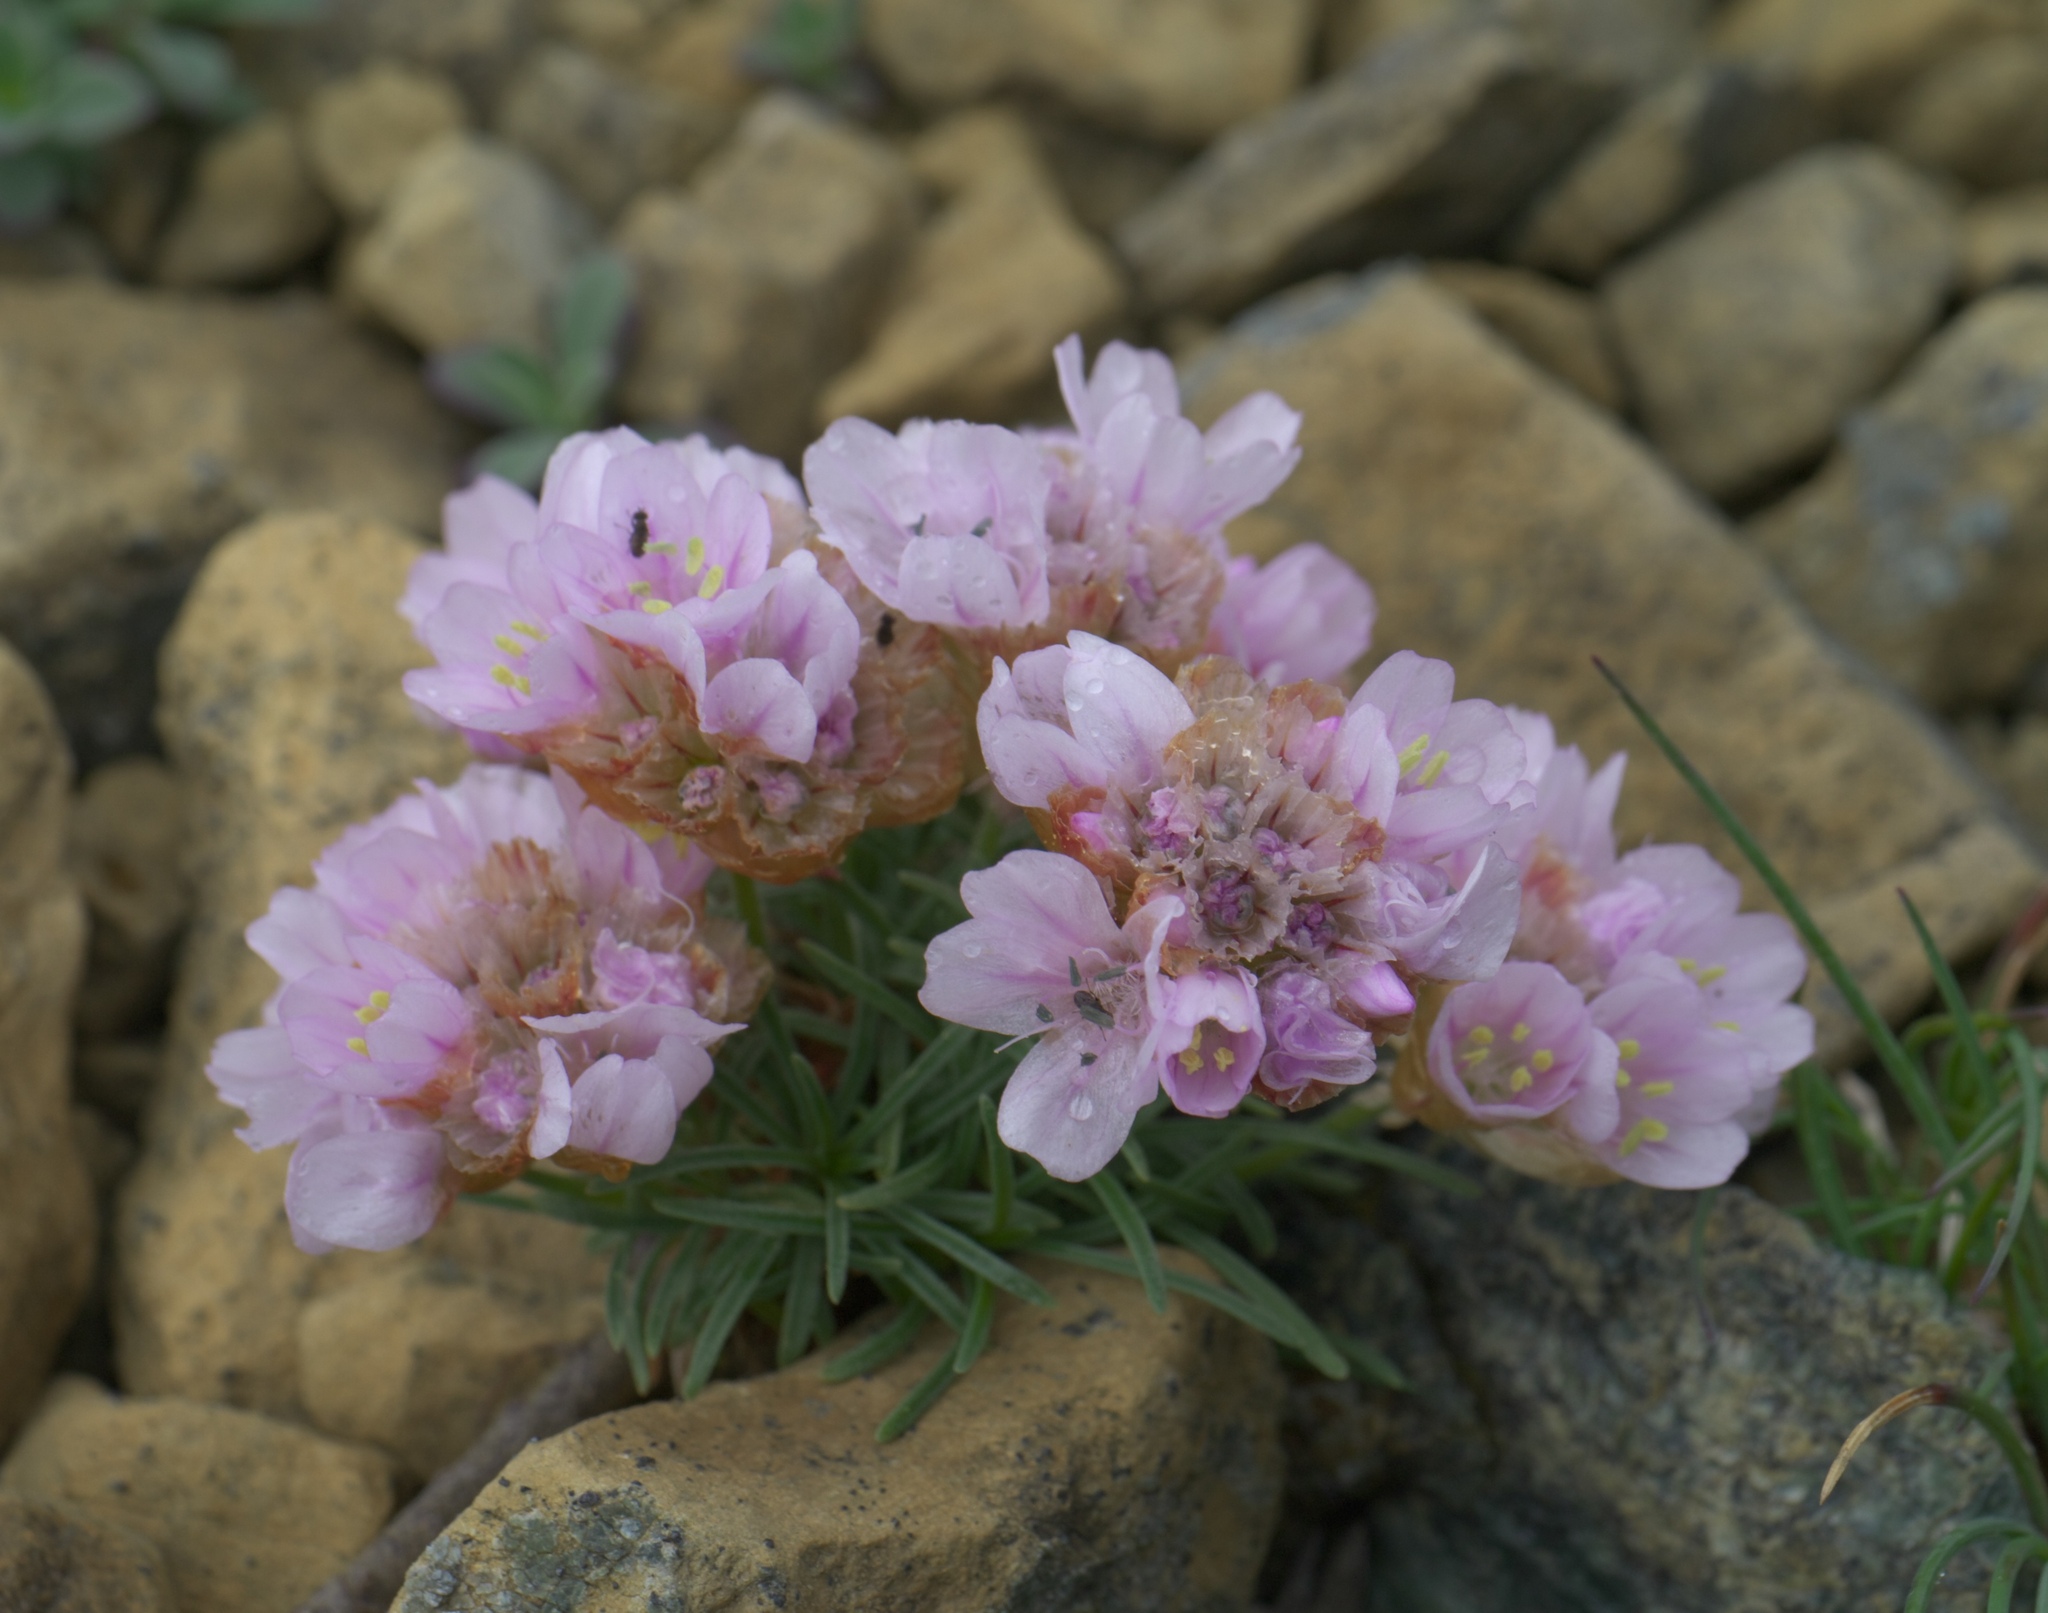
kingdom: Plantae
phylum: Tracheophyta
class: Magnoliopsida
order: Caryophyllales
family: Plumbaginaceae
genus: Armeria
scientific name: Armeria maritima
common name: Thrift
